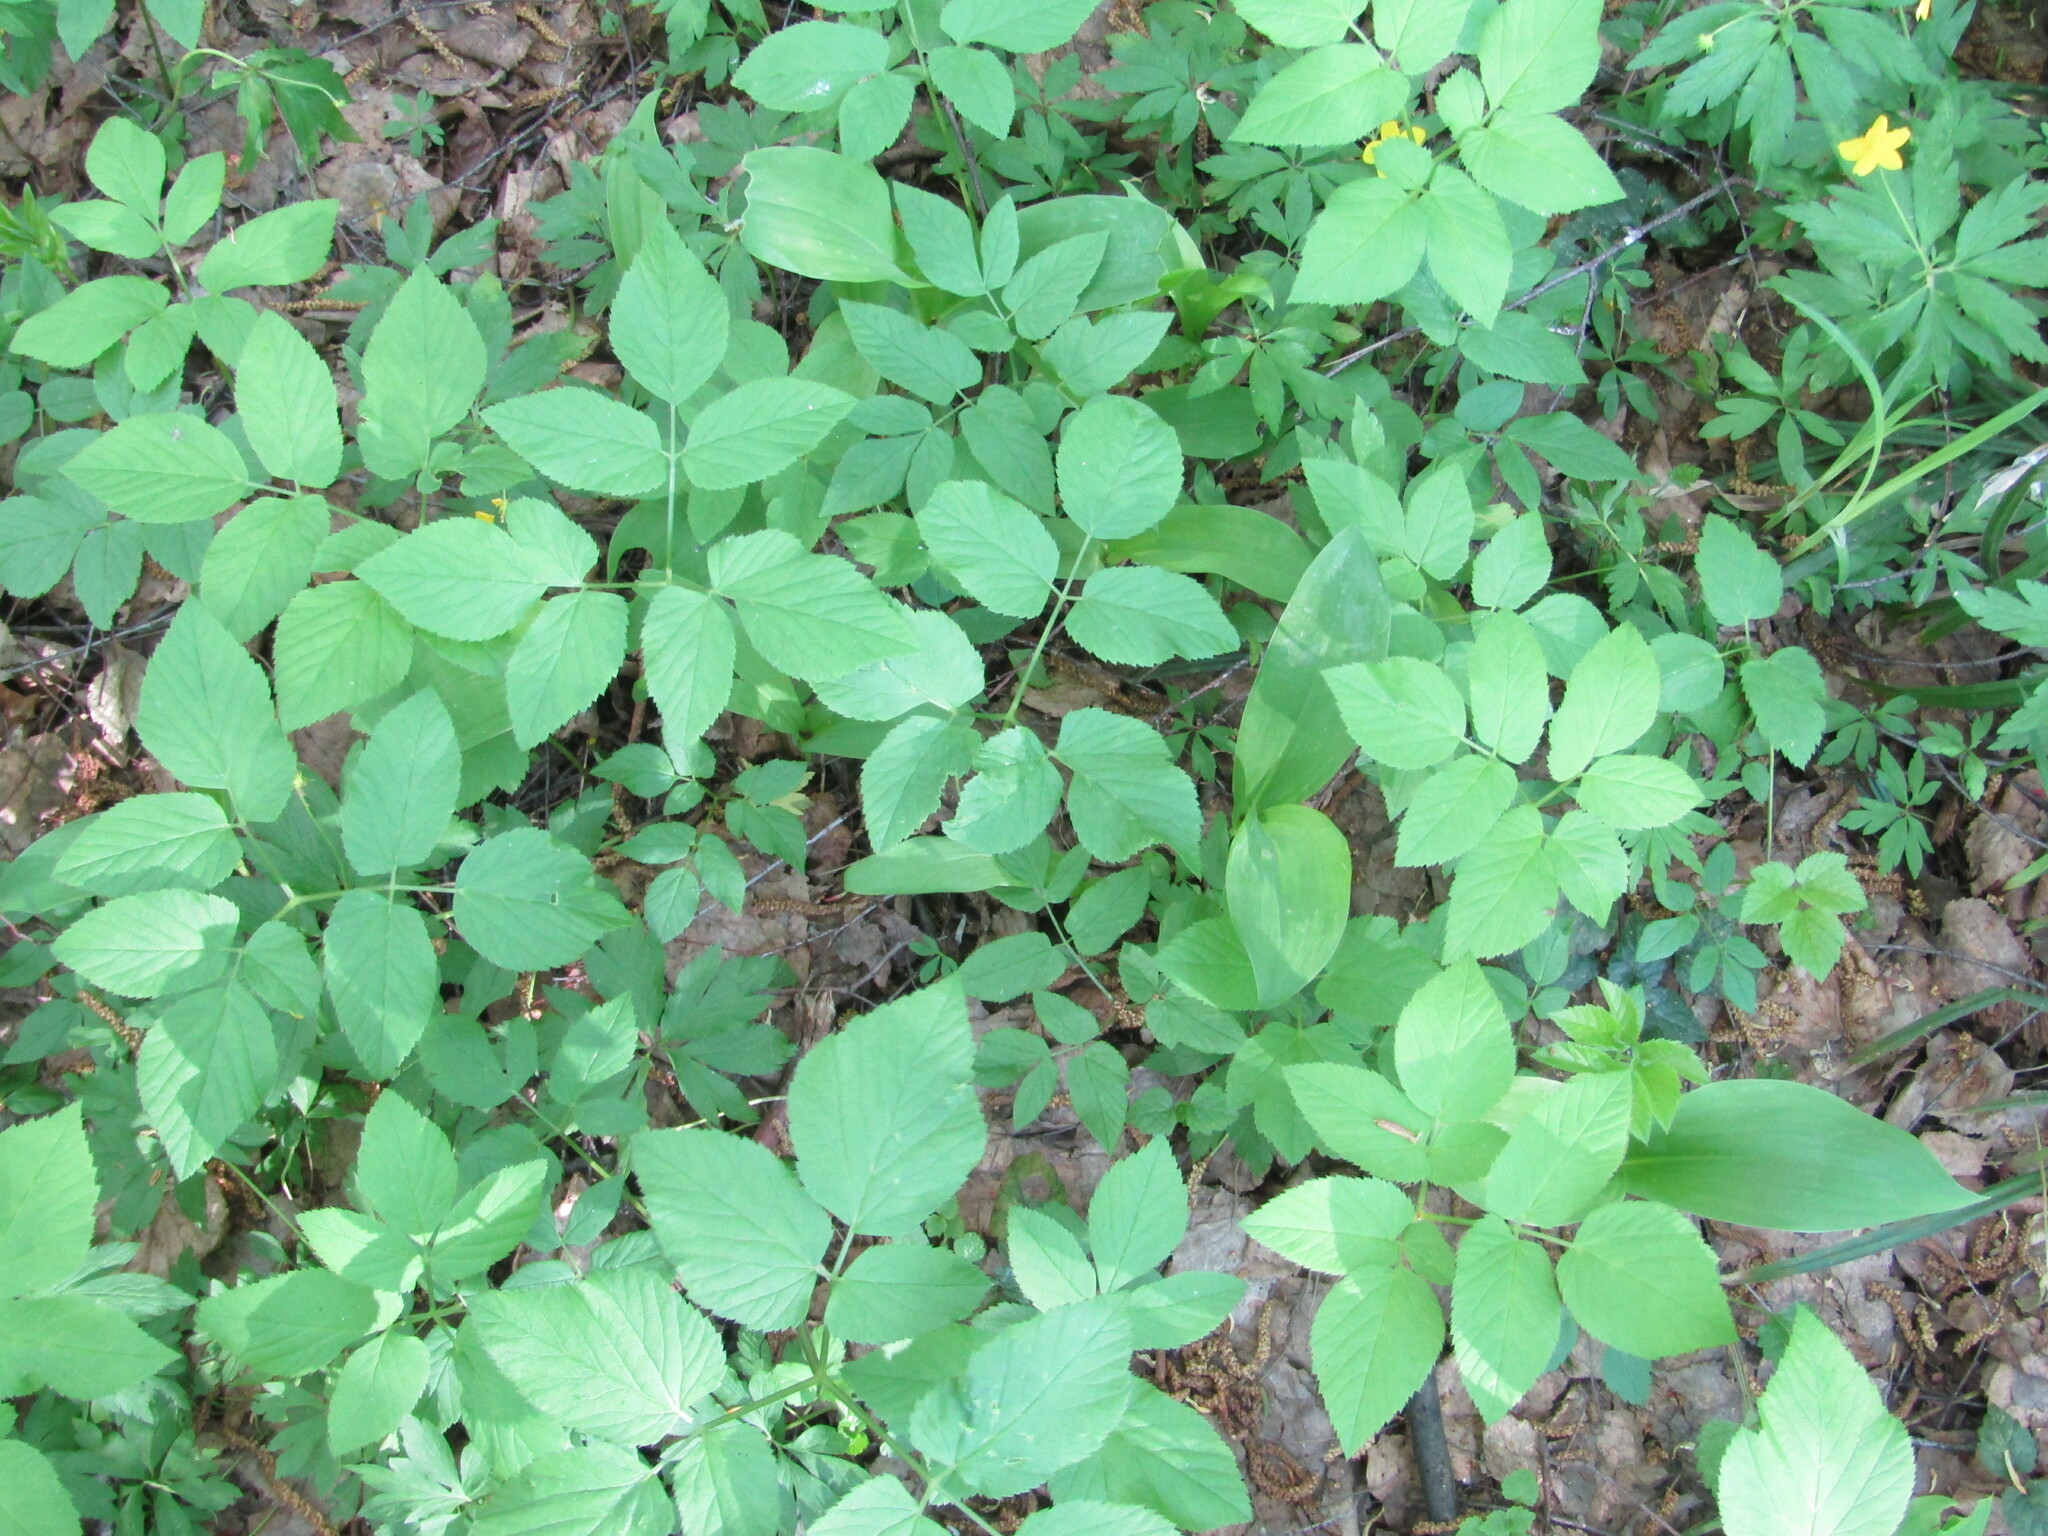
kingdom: Plantae
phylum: Tracheophyta
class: Magnoliopsida
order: Apiales
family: Apiaceae
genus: Aegopodium
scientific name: Aegopodium podagraria
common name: Ground-elder
